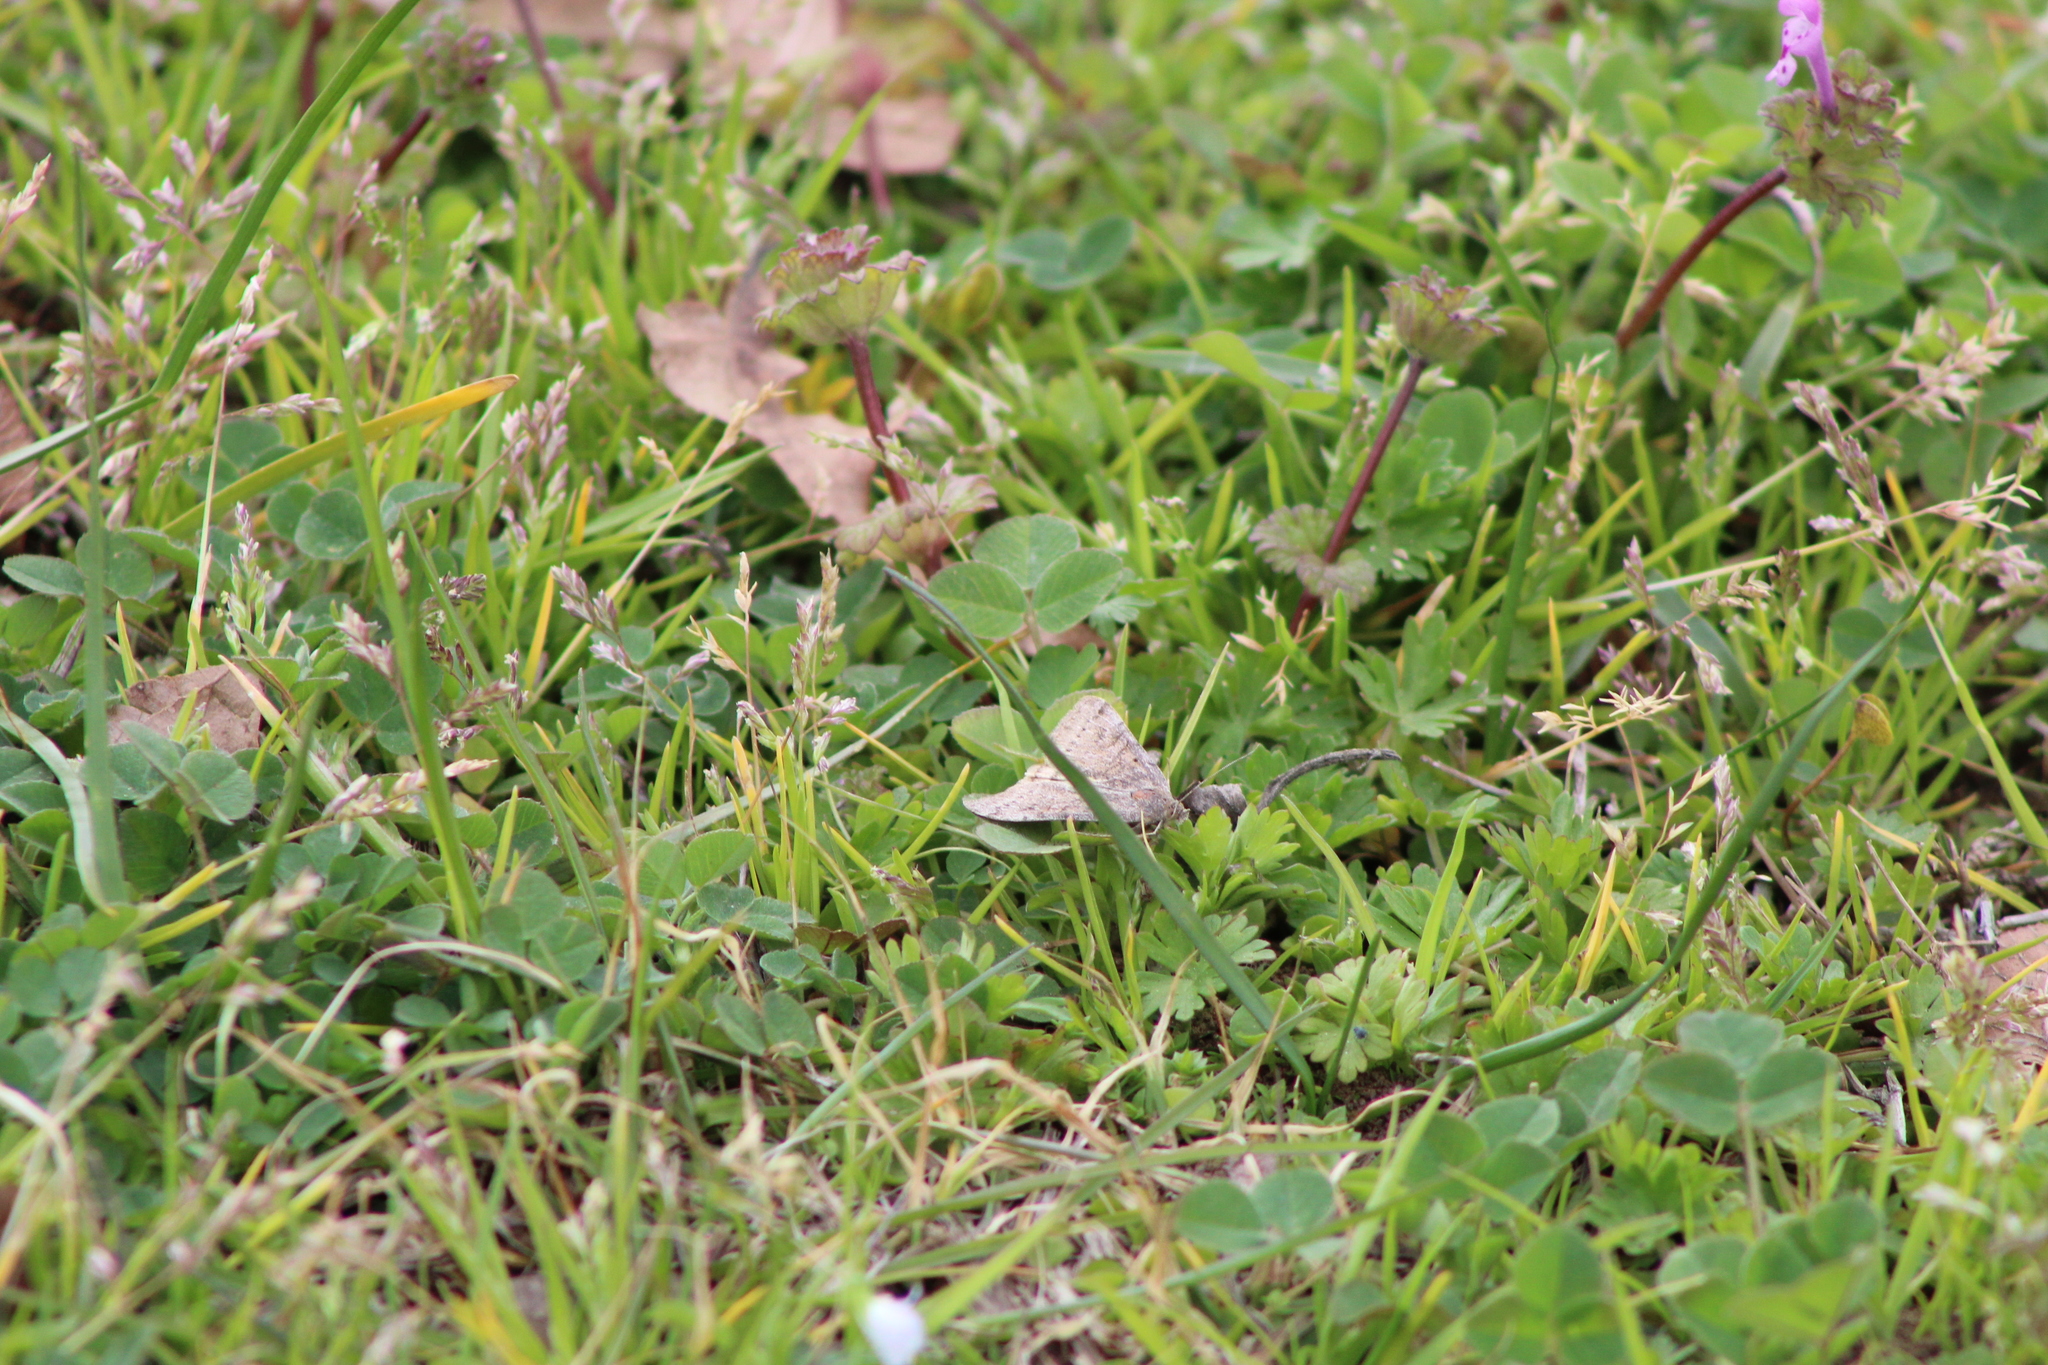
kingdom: Animalia
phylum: Arthropoda
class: Insecta
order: Lepidoptera
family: Erebidae
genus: Caenurgina
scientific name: Caenurgina erechtea
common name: Forage looper moth
